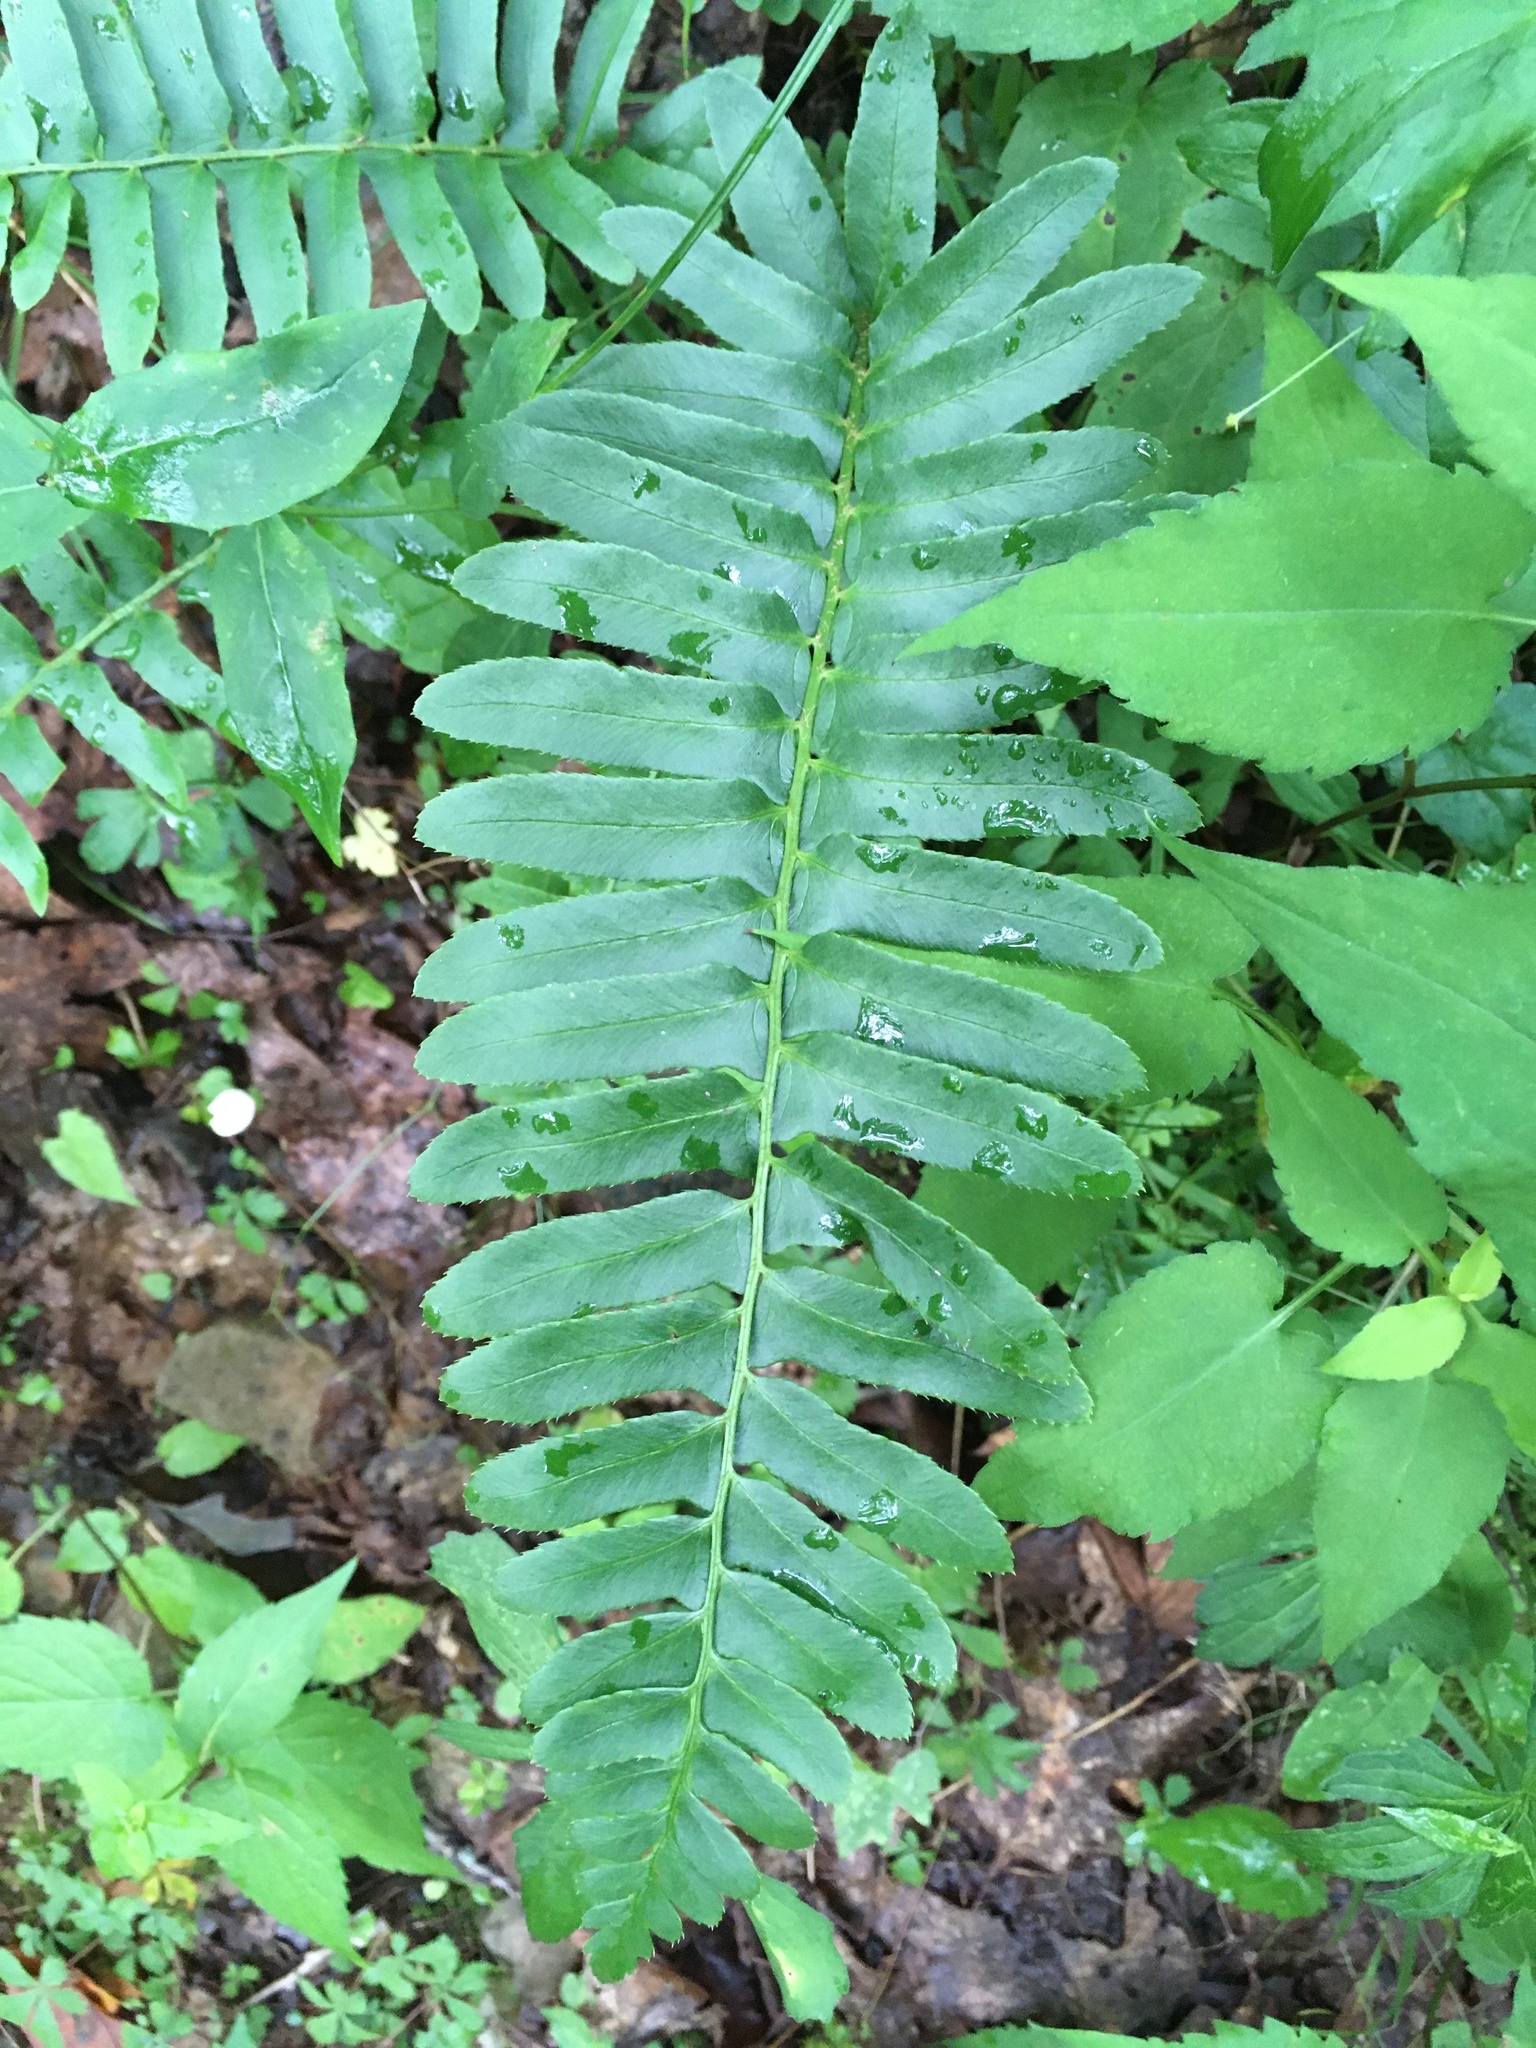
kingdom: Plantae
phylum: Tracheophyta
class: Polypodiopsida
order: Polypodiales
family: Dryopteridaceae
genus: Polystichum
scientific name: Polystichum acrostichoides
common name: Christmas fern
